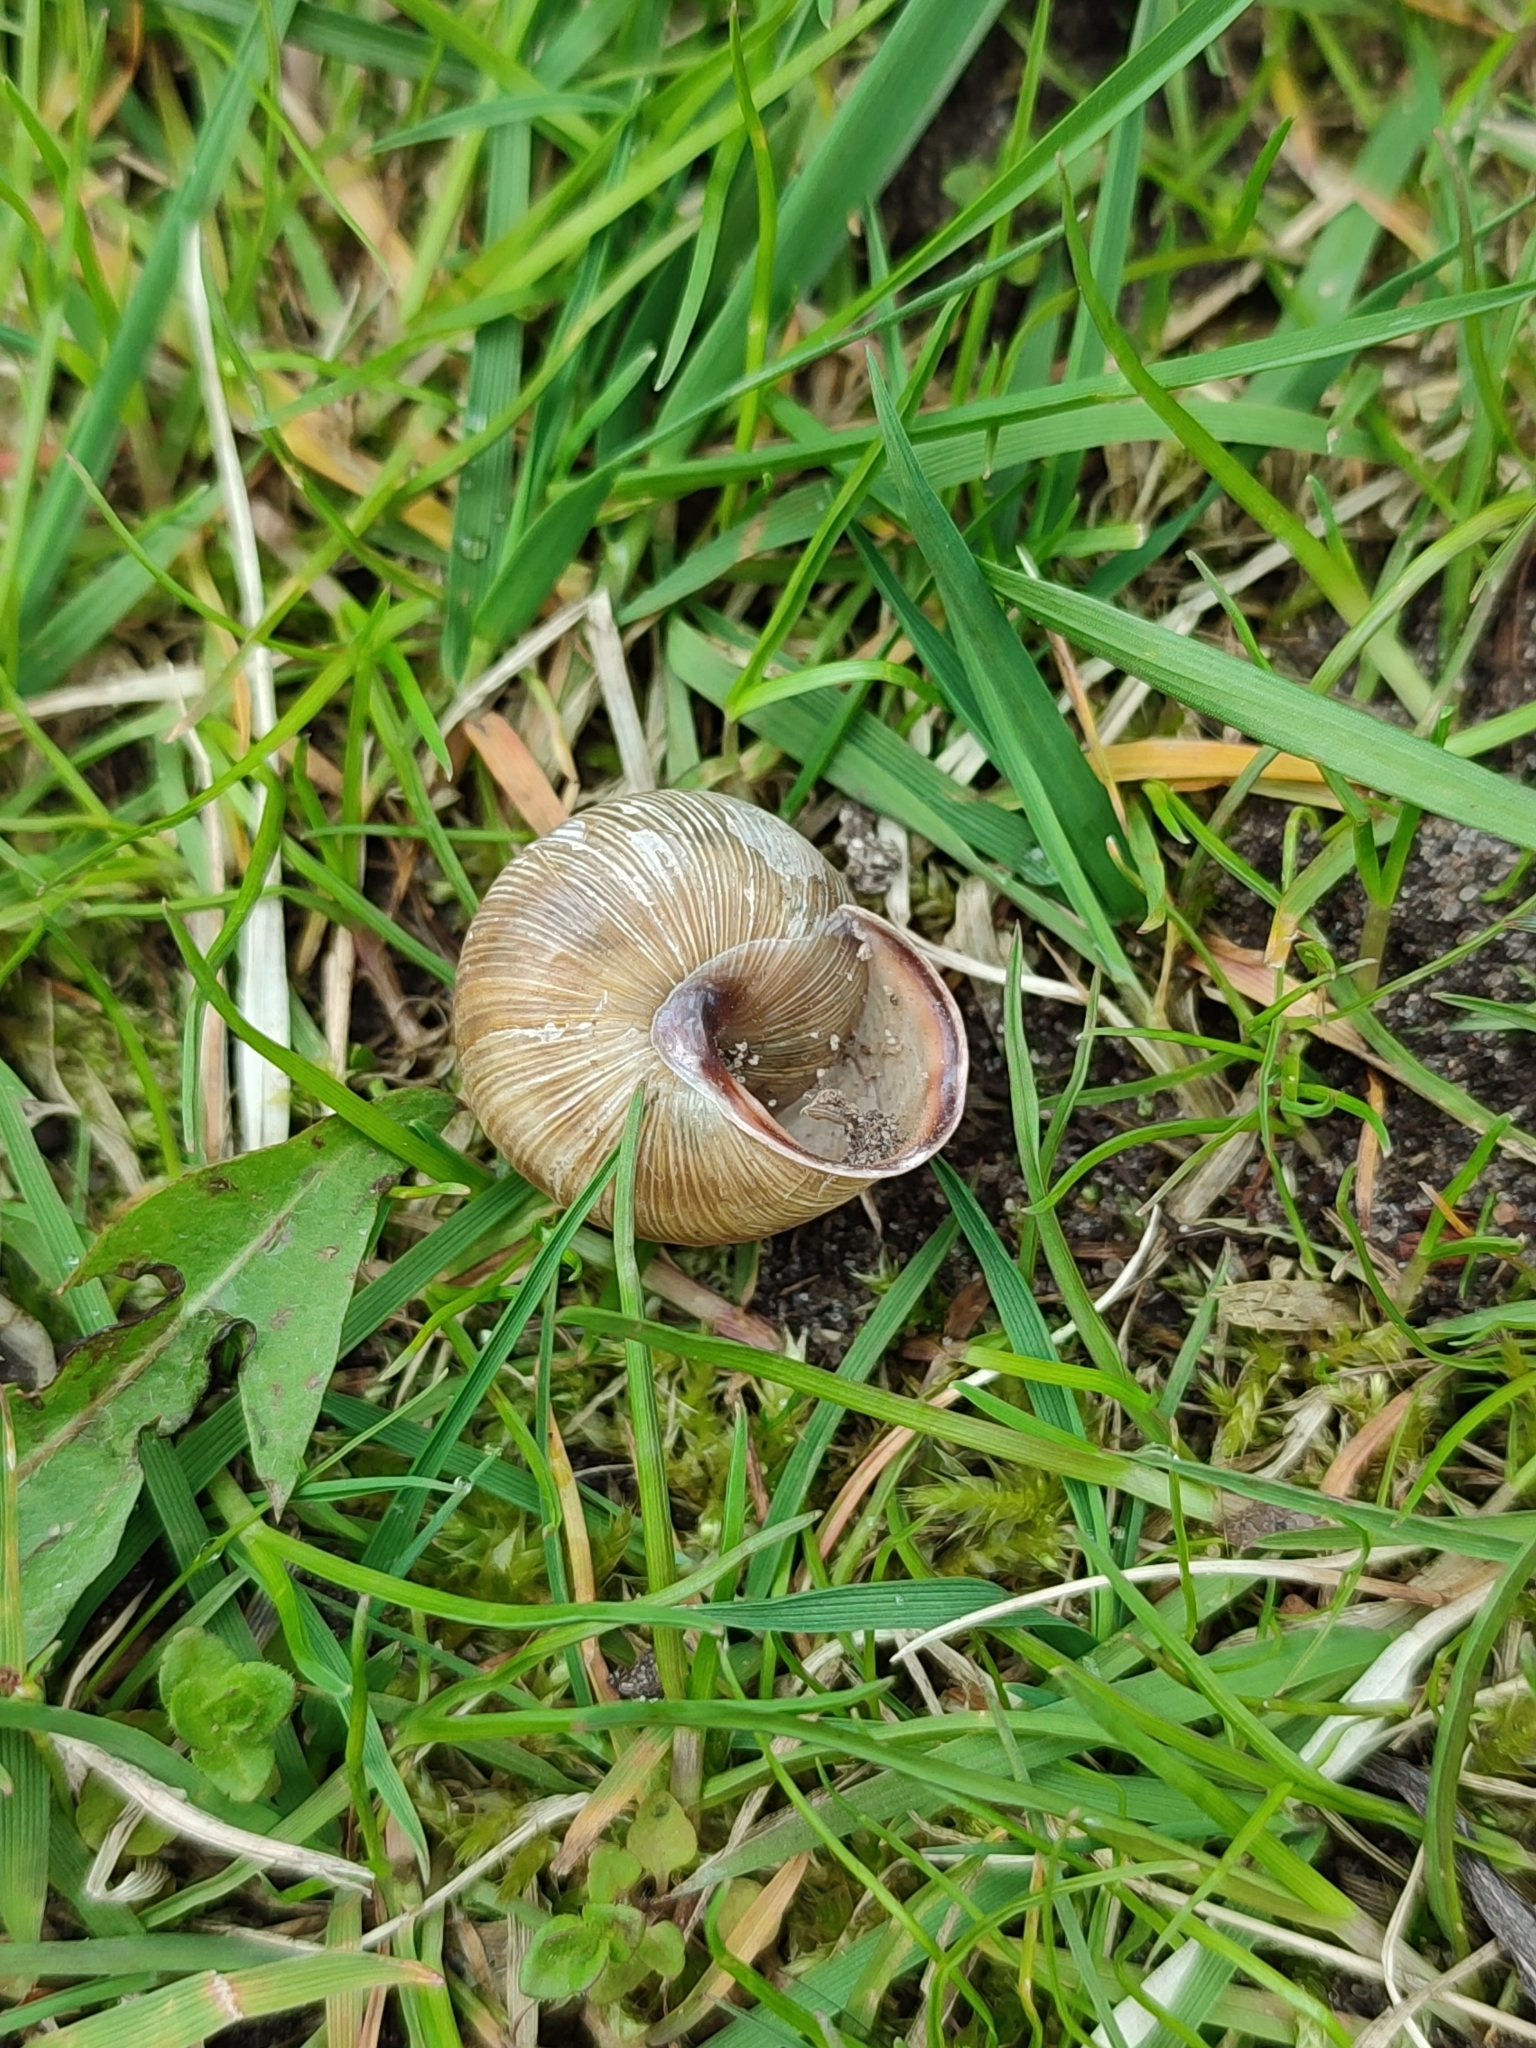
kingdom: Animalia
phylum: Mollusca
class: Gastropoda
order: Stylommatophora
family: Helicidae
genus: Caucasotachea
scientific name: Caucasotachea vindobonensis
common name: European helicid land snail
